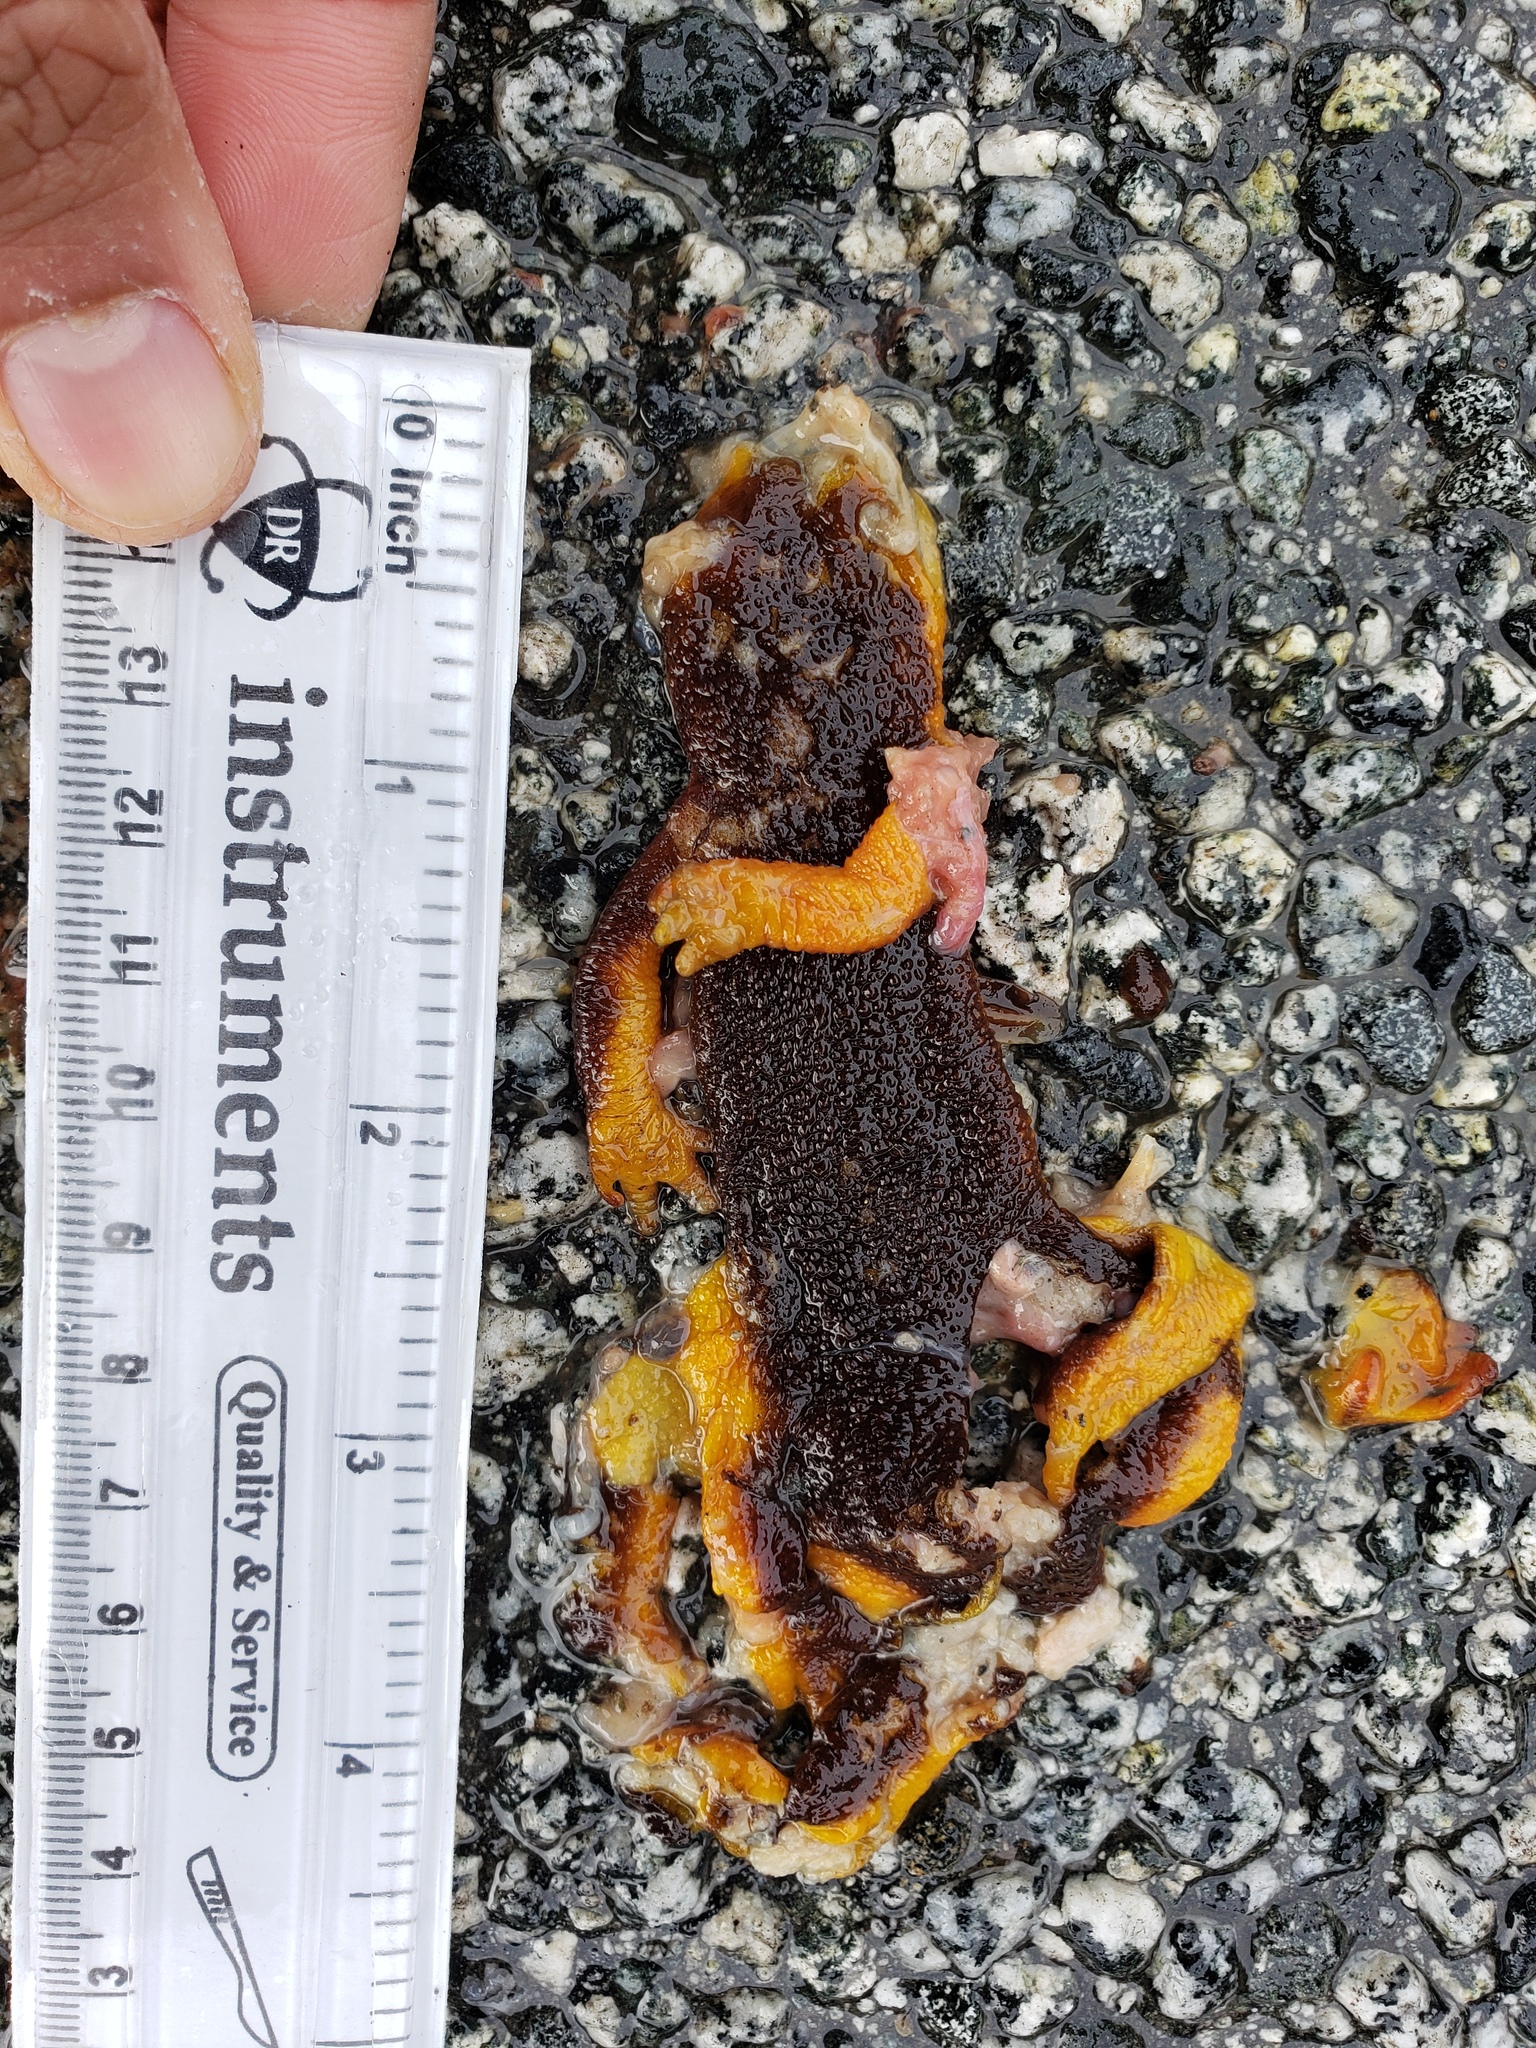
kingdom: Animalia
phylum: Chordata
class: Amphibia
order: Caudata
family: Salamandridae
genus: Taricha
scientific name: Taricha
